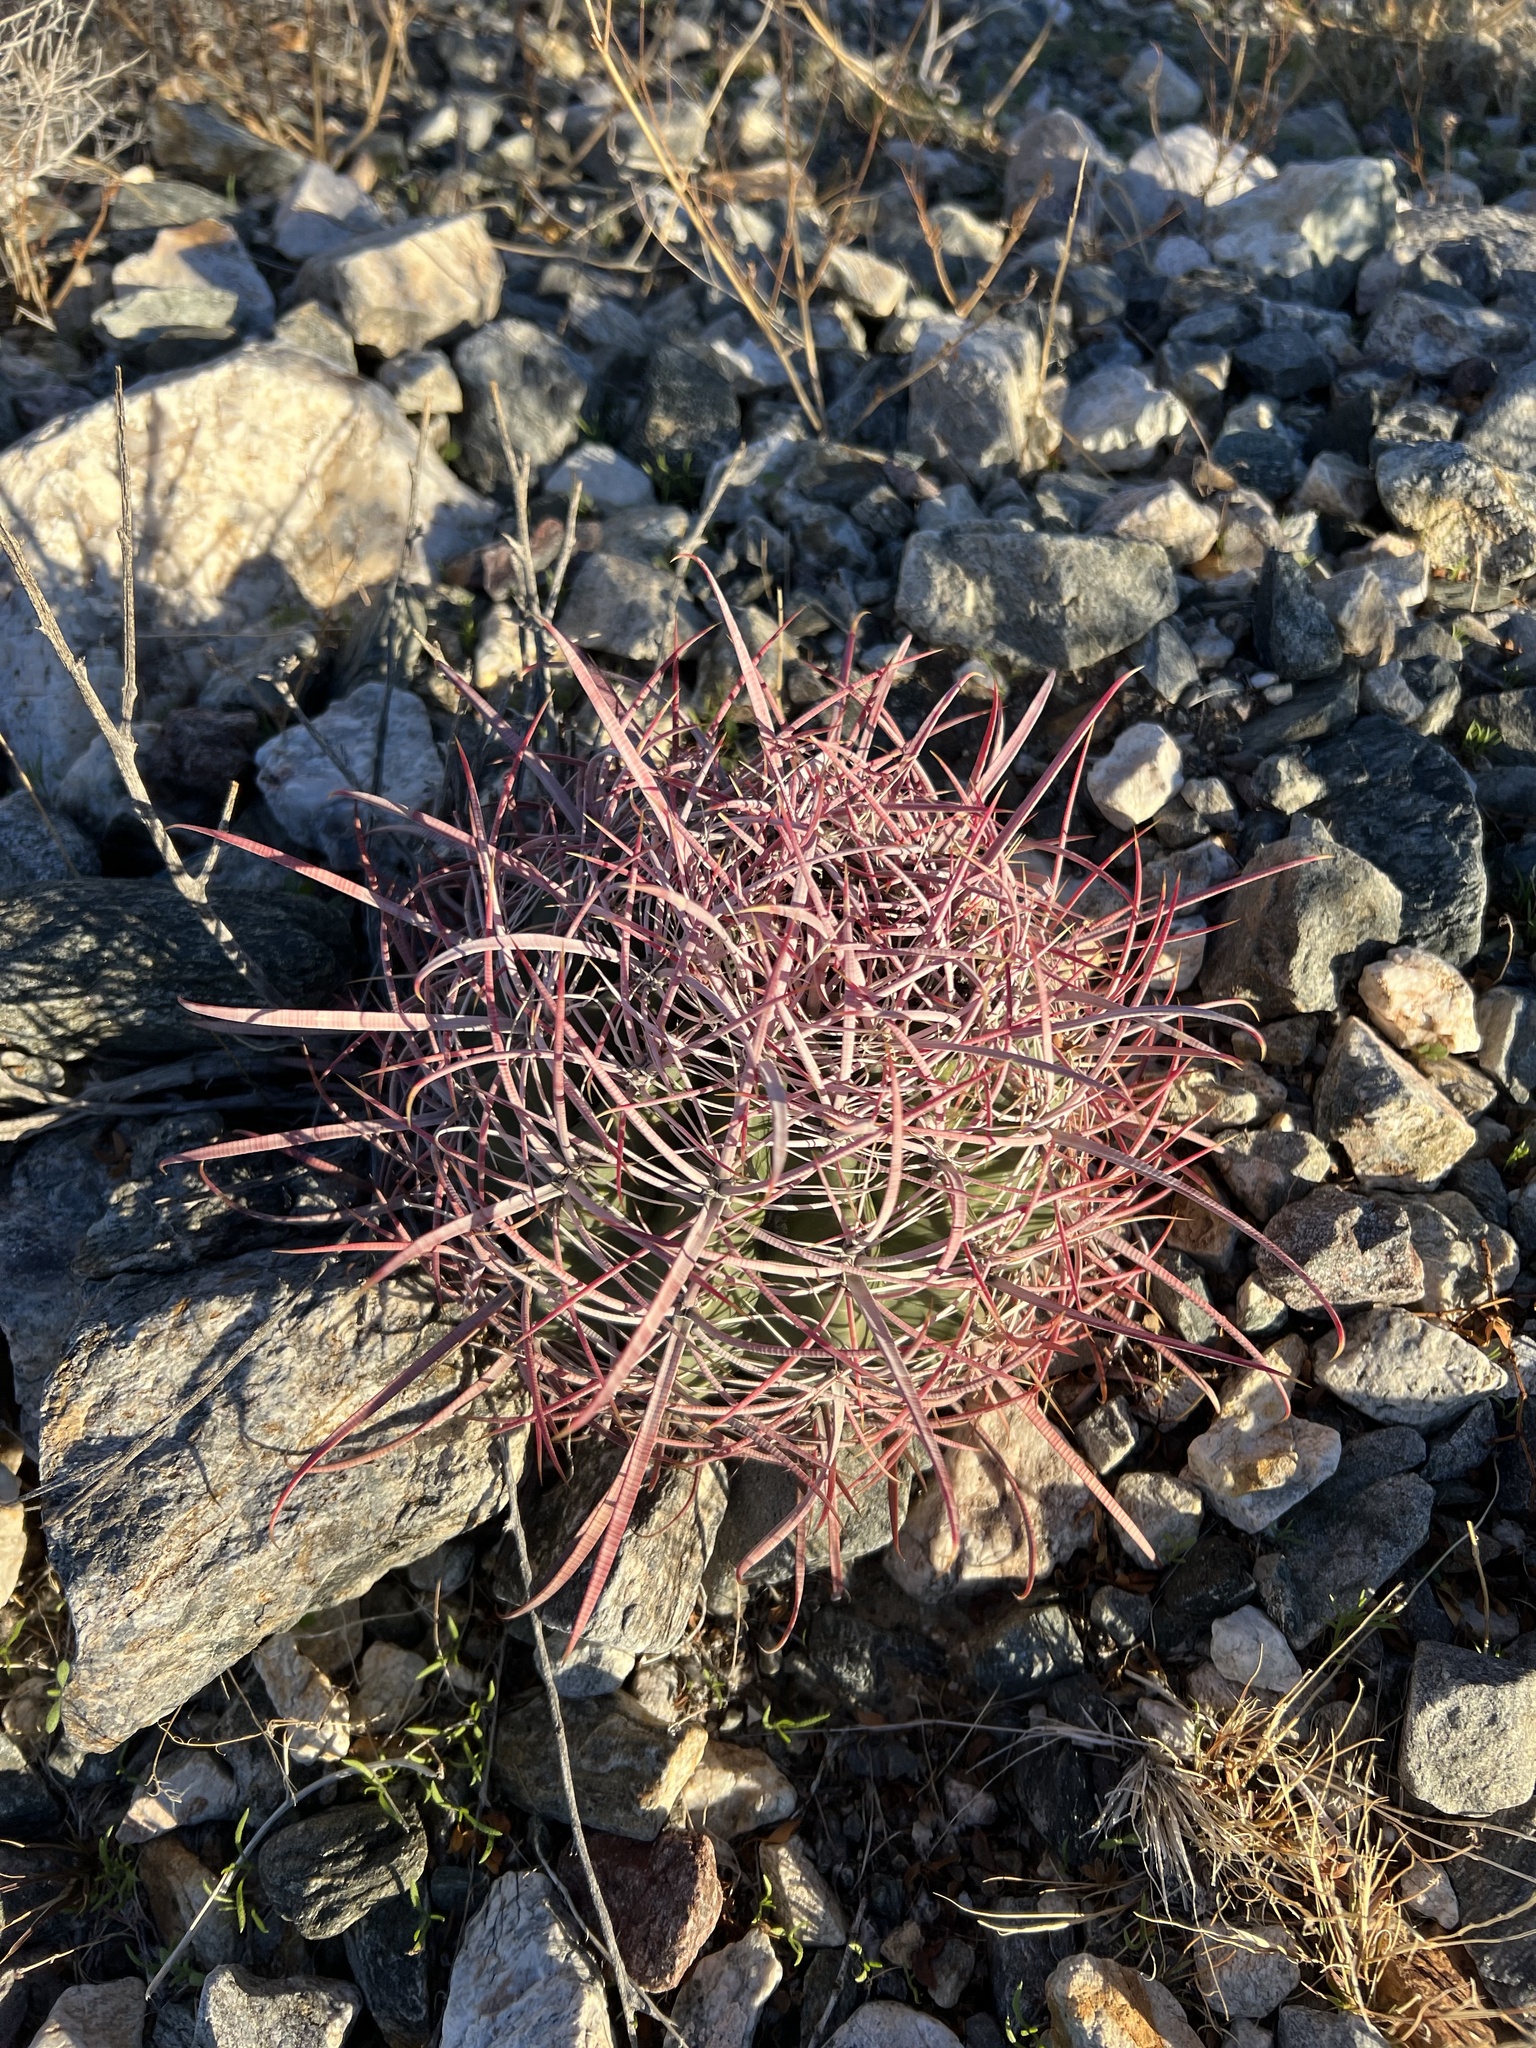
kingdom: Plantae
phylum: Tracheophyta
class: Magnoliopsida
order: Caryophyllales
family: Cactaceae
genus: Ferocactus
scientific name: Ferocactus cylindraceus
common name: California barrel cactus
